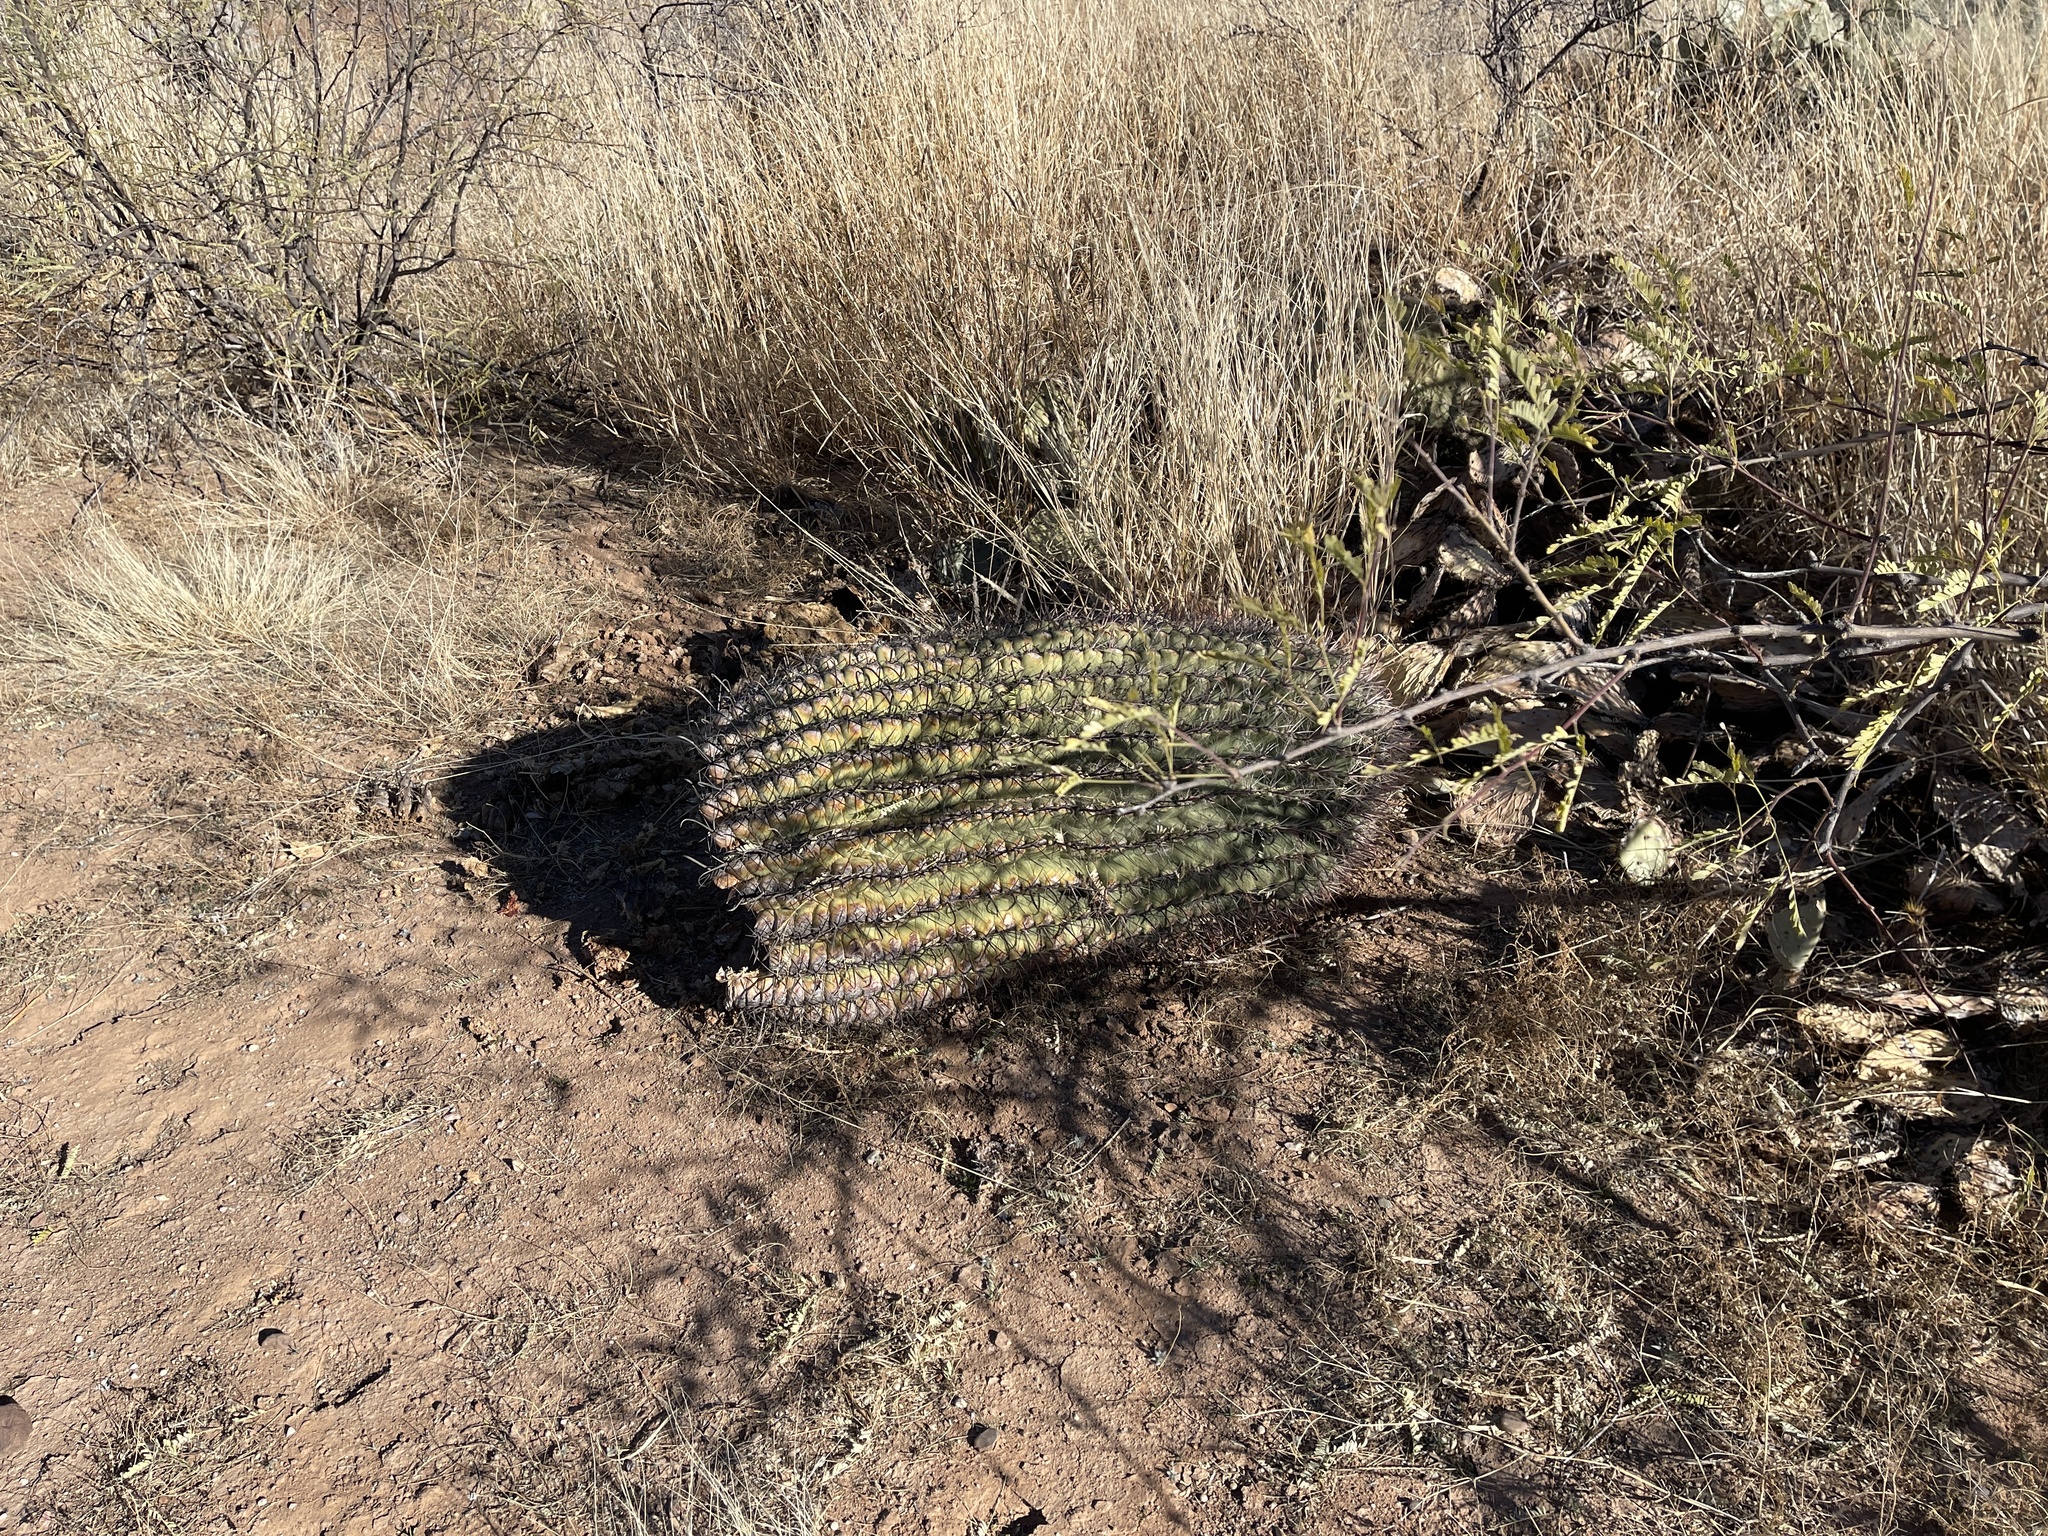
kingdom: Plantae
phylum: Tracheophyta
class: Magnoliopsida
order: Caryophyllales
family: Cactaceae
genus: Ferocactus
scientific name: Ferocactus wislizeni
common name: Candy barrel cactus
